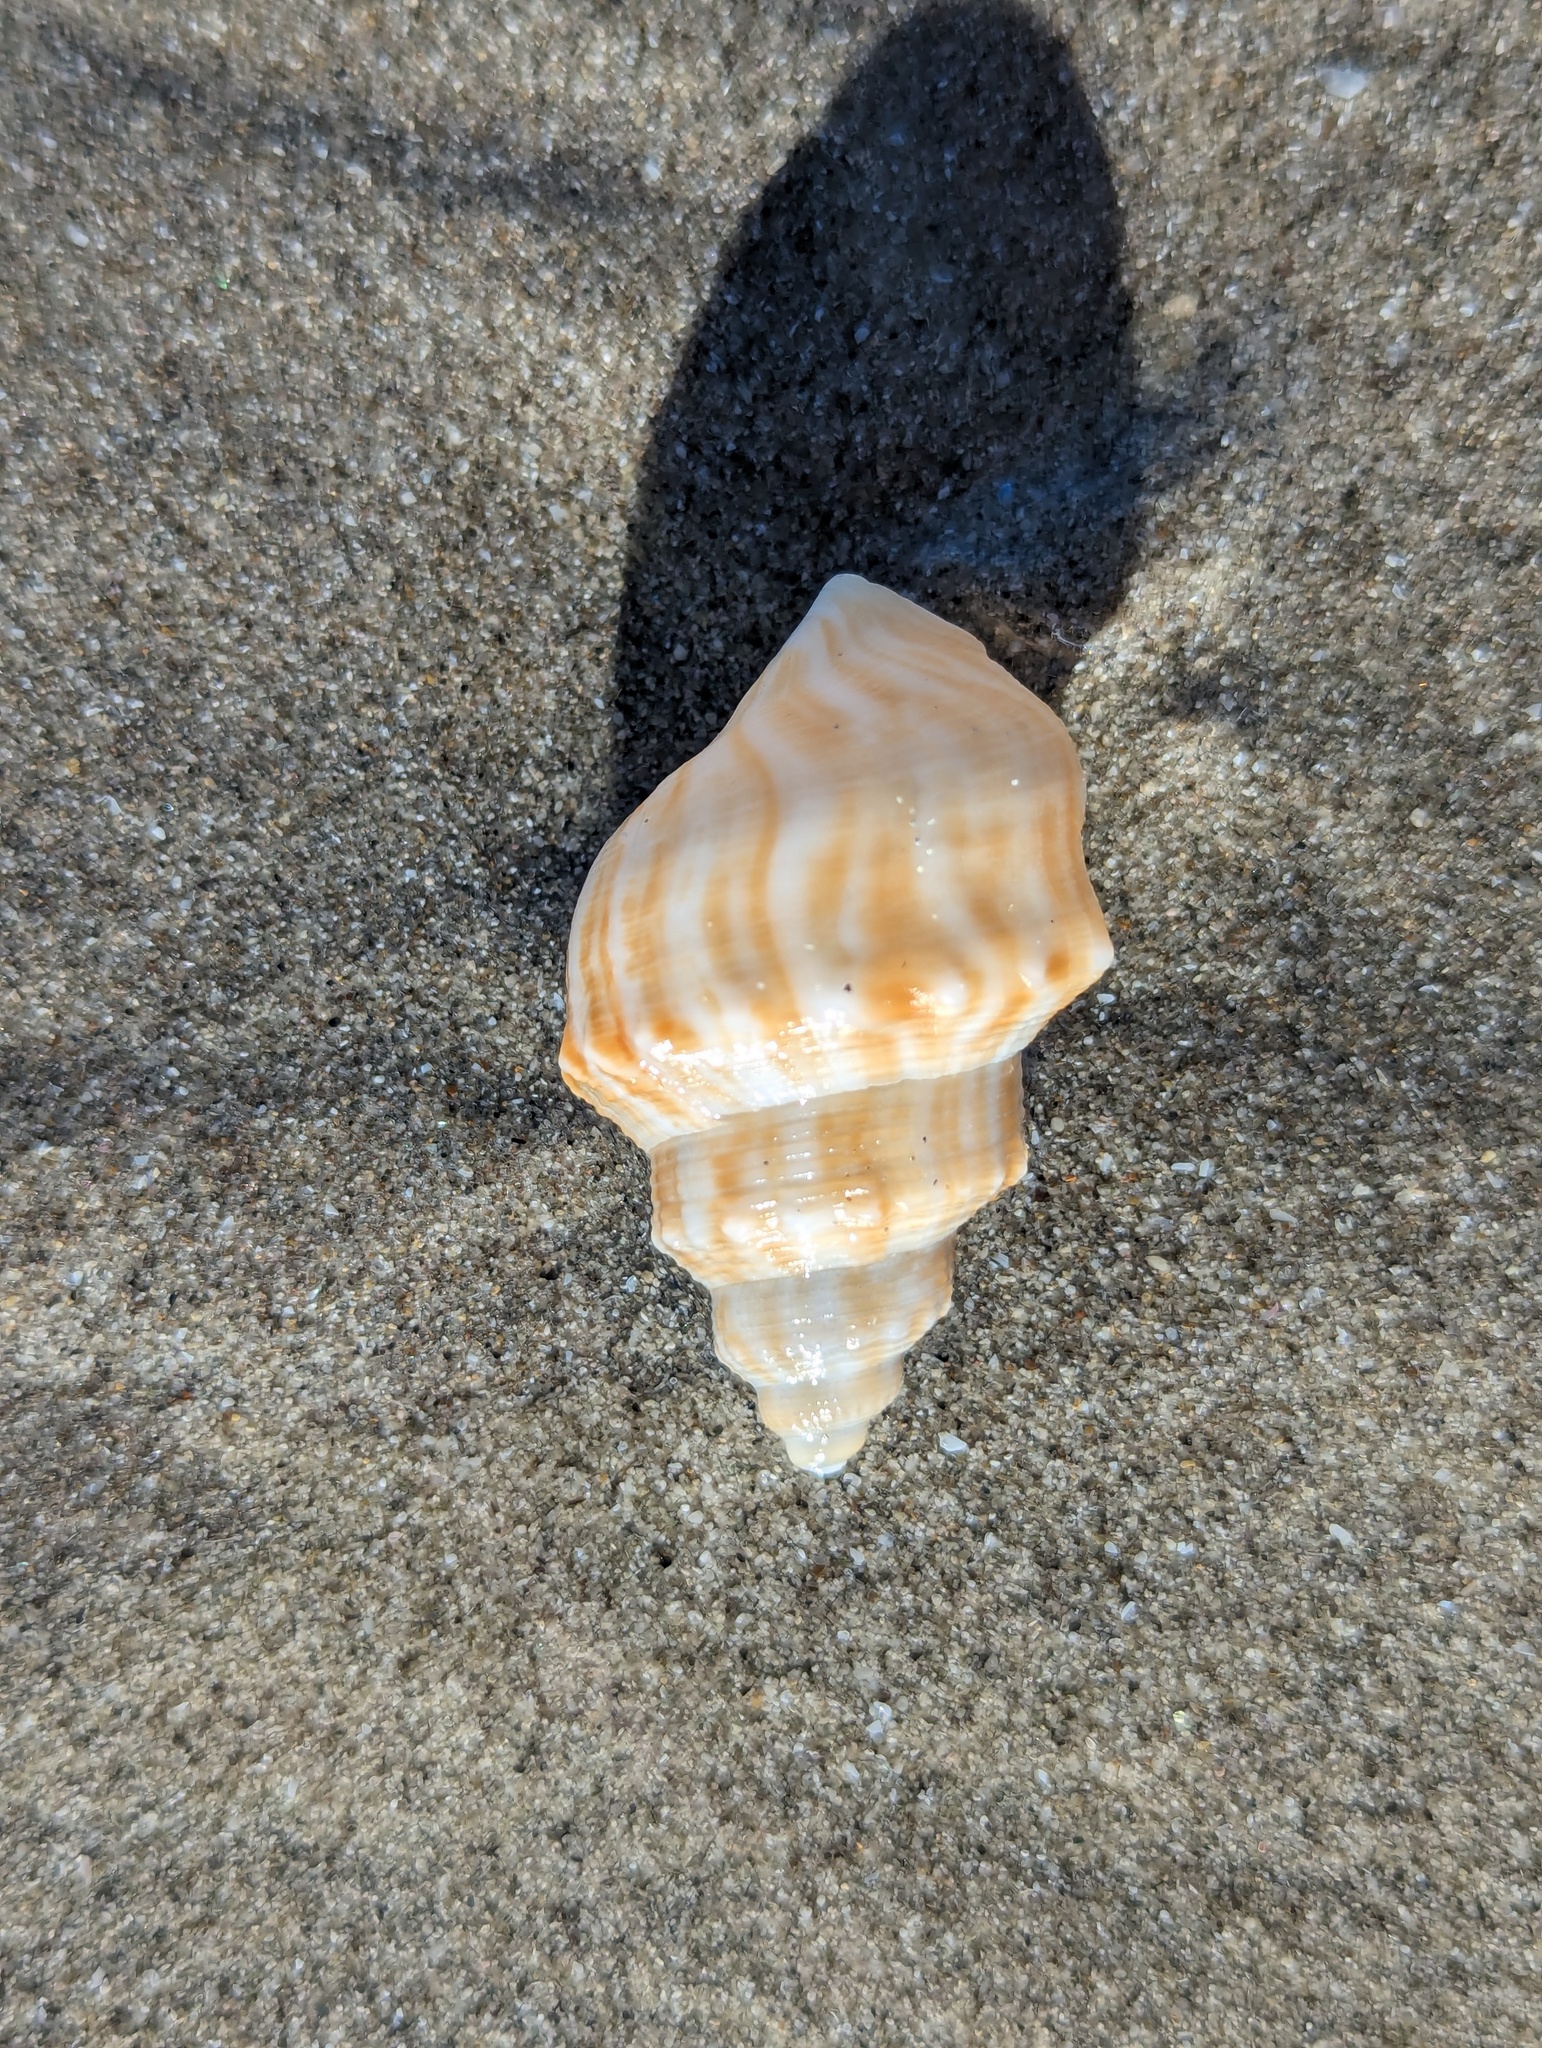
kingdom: Animalia
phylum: Mollusca
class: Gastropoda
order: Littorinimorpha
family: Struthiolariidae
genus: Struthiolaria
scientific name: Struthiolaria papulosa
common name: Large ostrich foot
